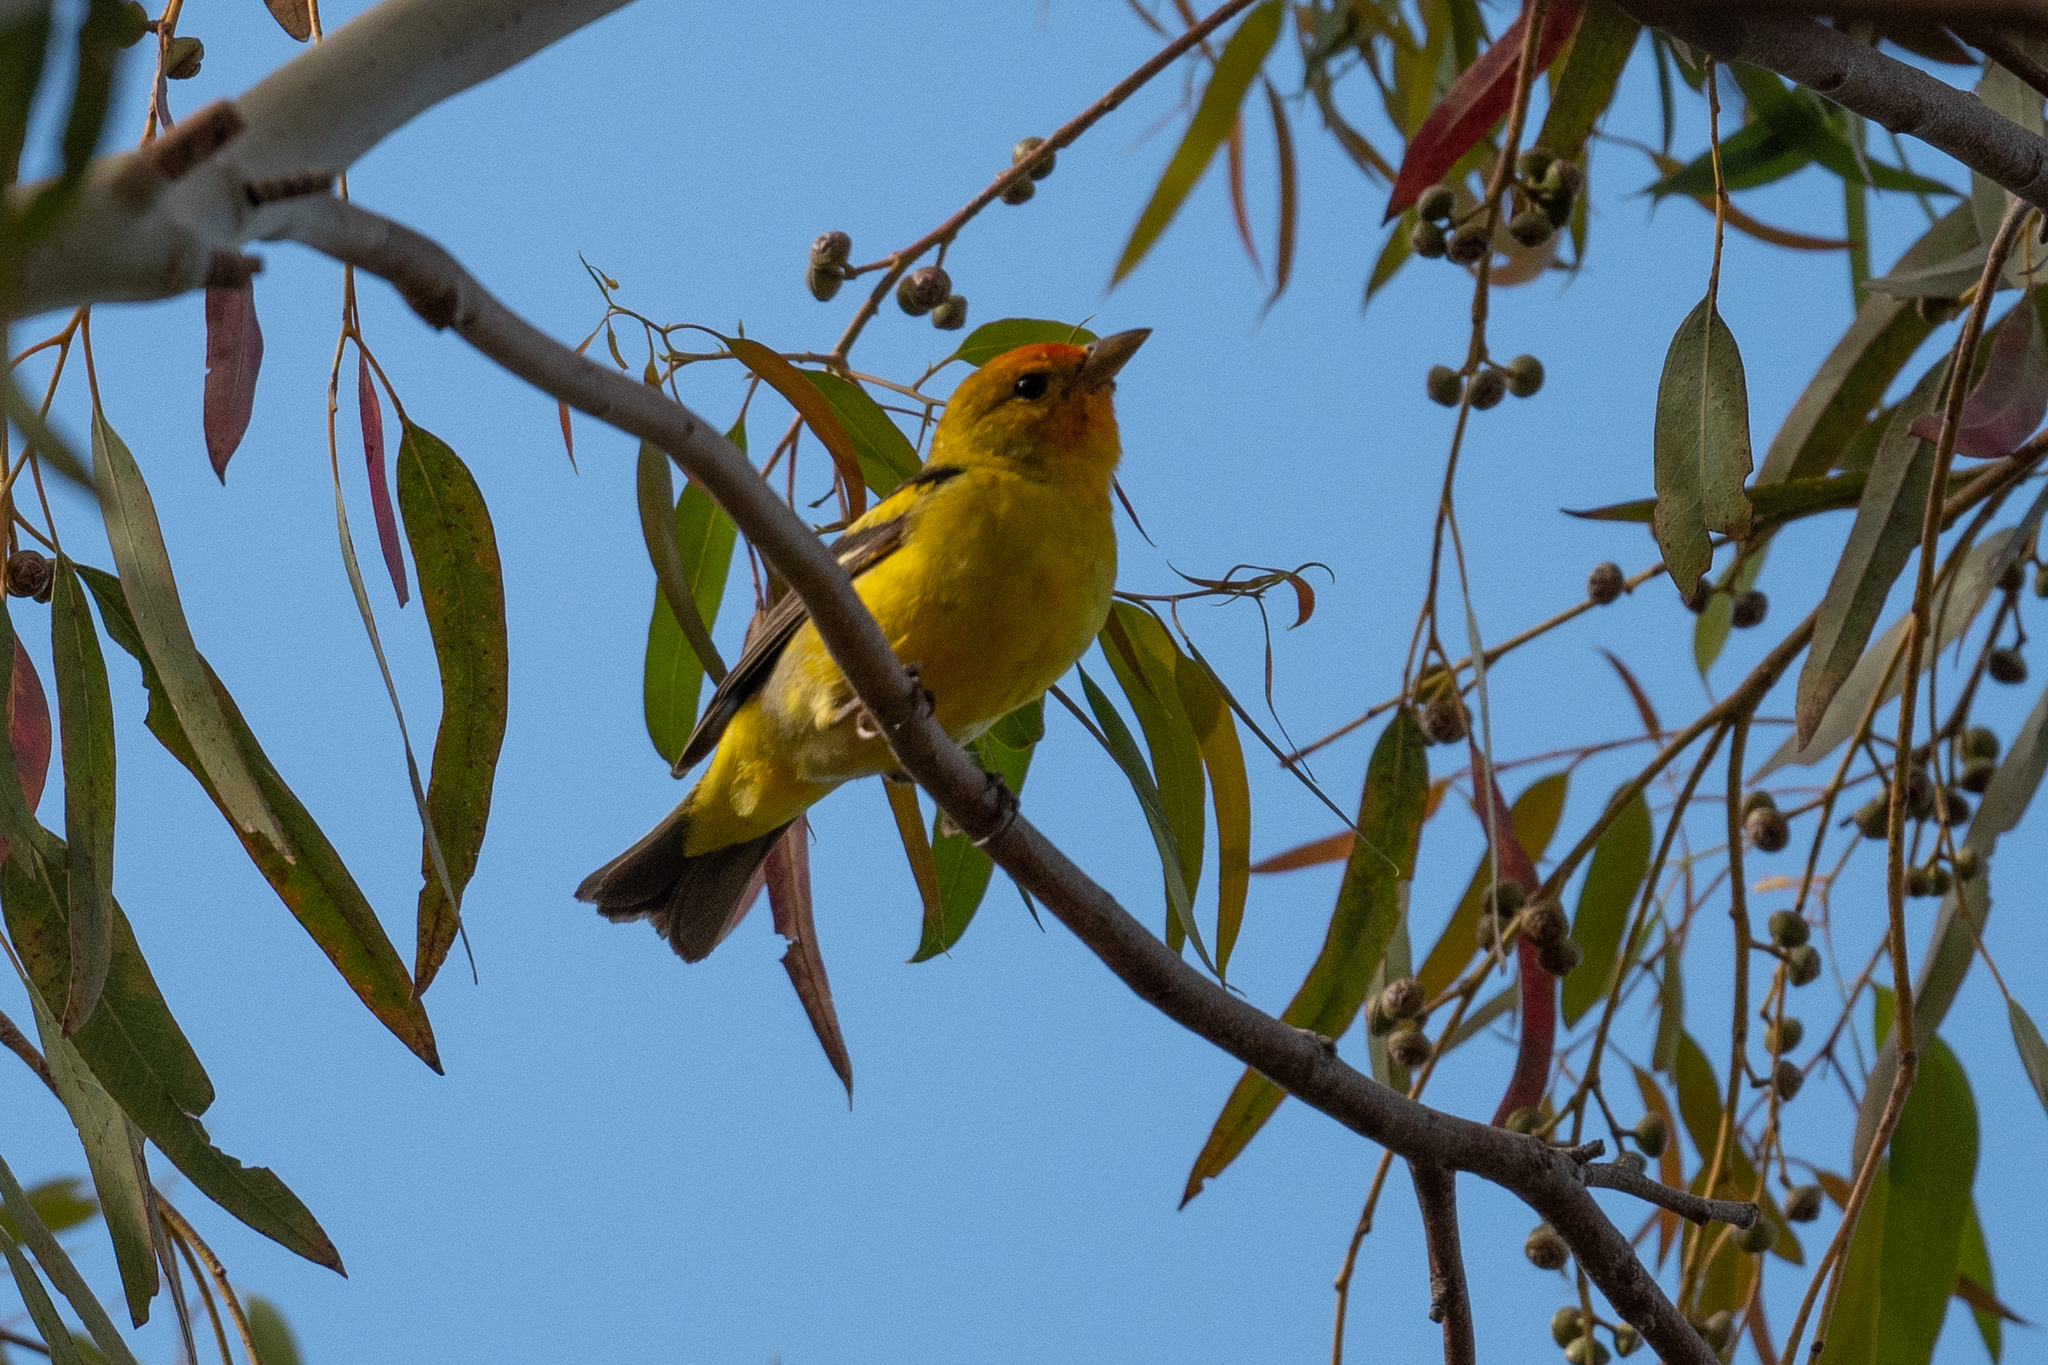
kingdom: Animalia
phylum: Chordata
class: Aves
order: Passeriformes
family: Cardinalidae
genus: Piranga
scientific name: Piranga ludoviciana
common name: Western tanager
